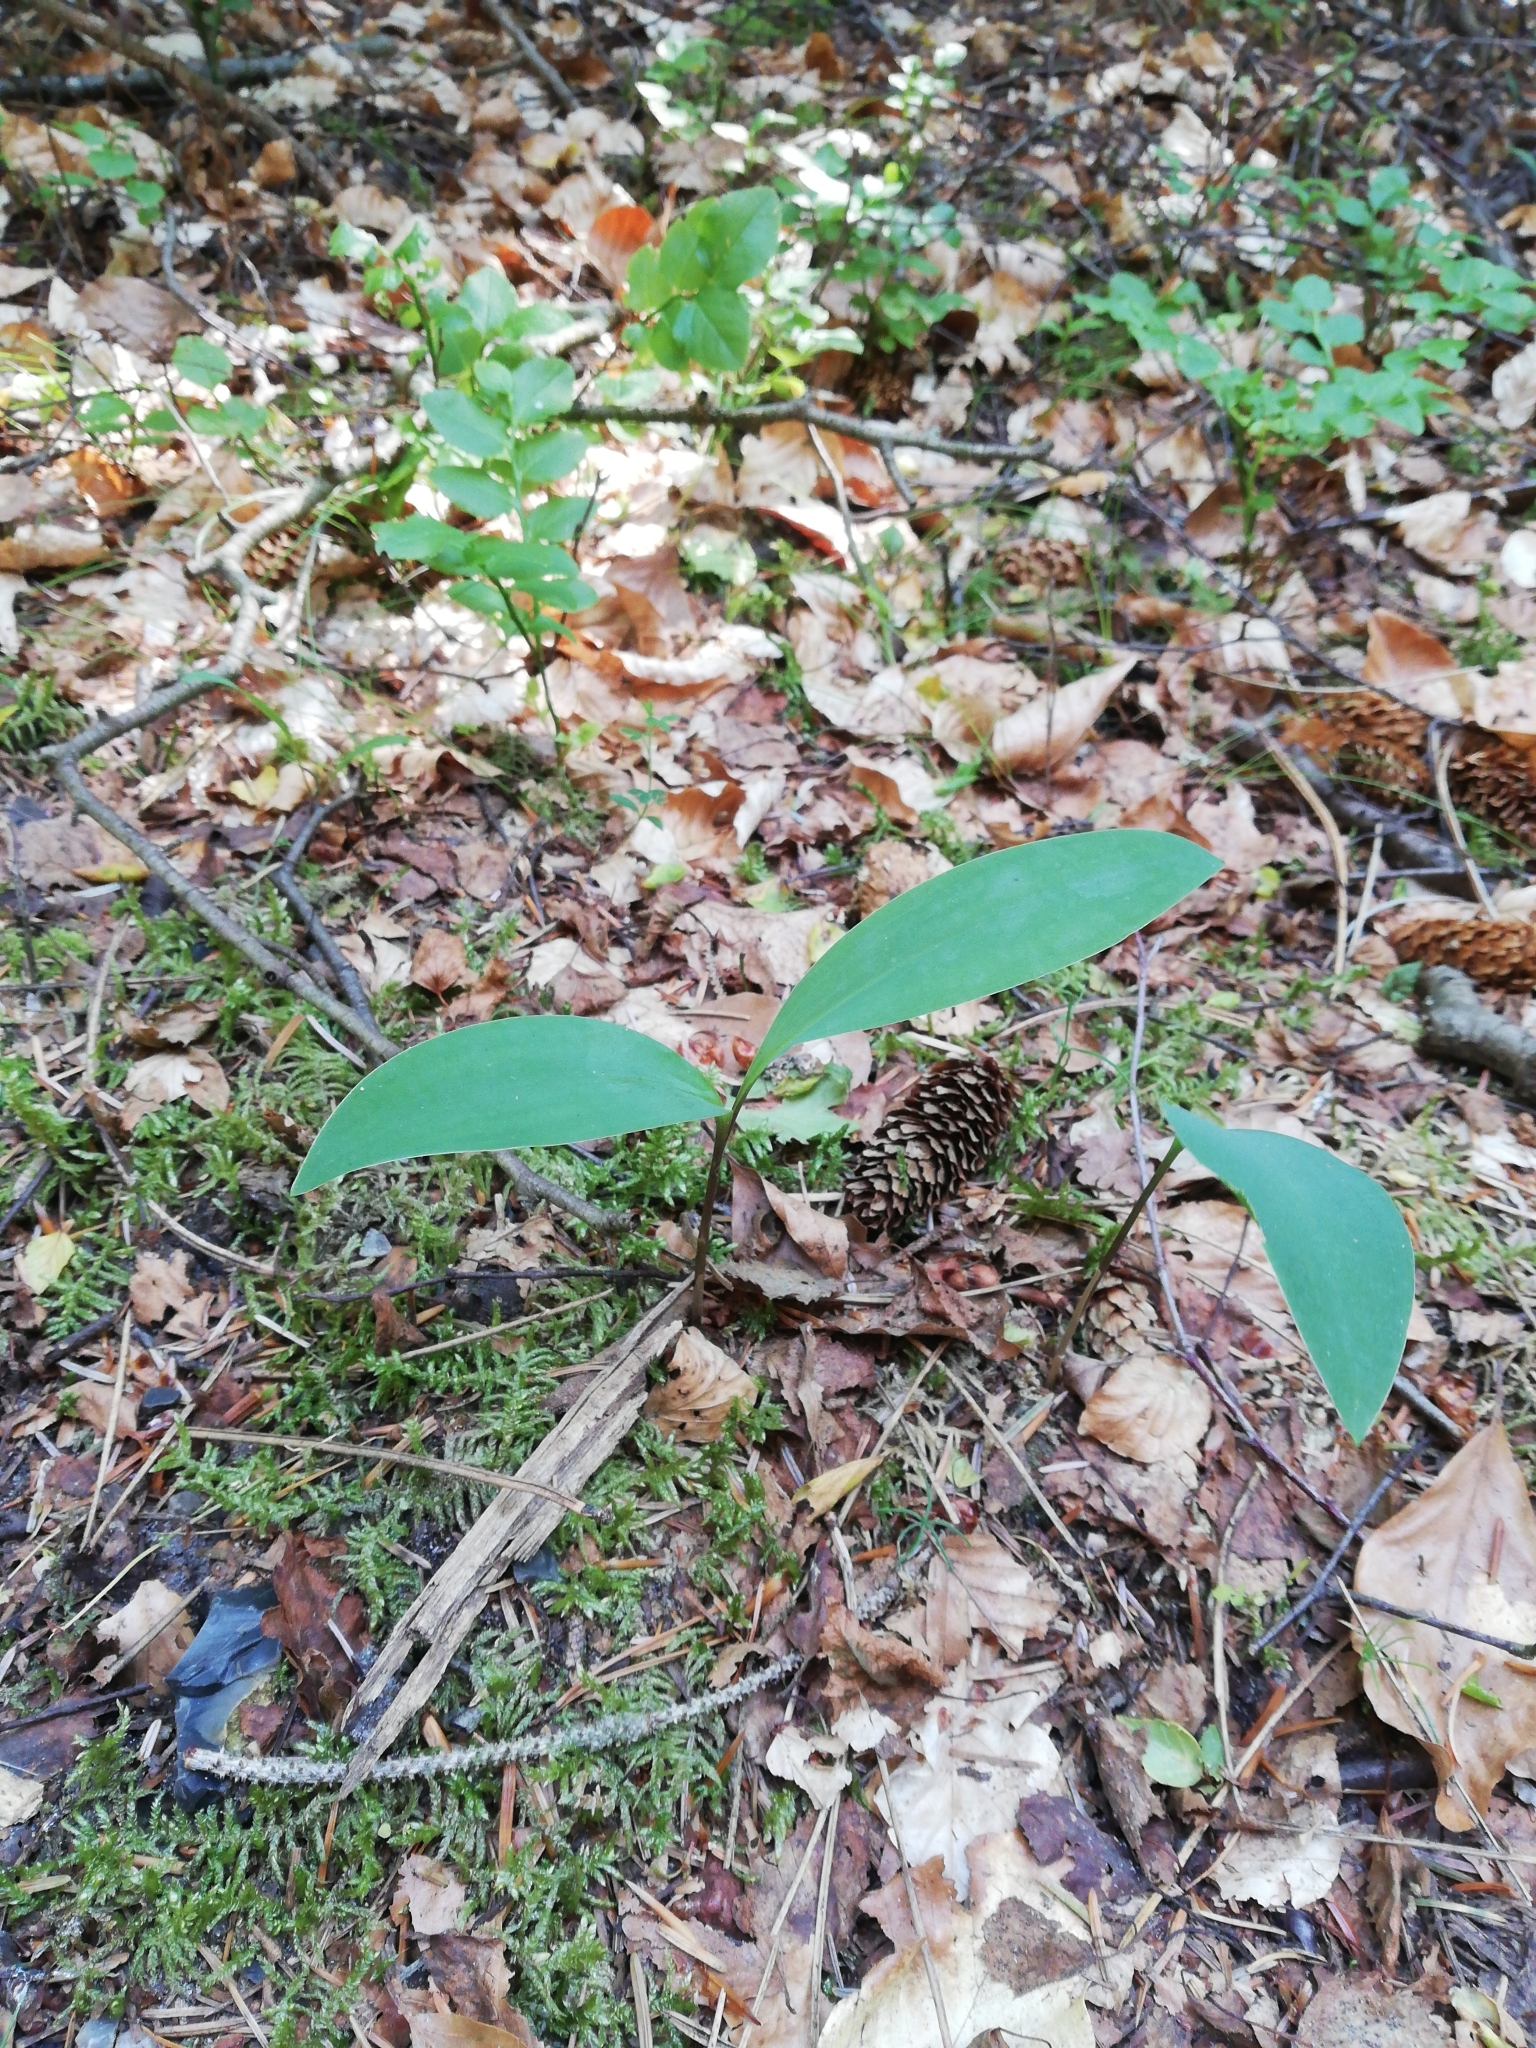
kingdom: Plantae
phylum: Tracheophyta
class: Liliopsida
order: Asparagales
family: Asparagaceae
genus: Convallaria
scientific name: Convallaria majalis
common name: Lily-of-the-valley
